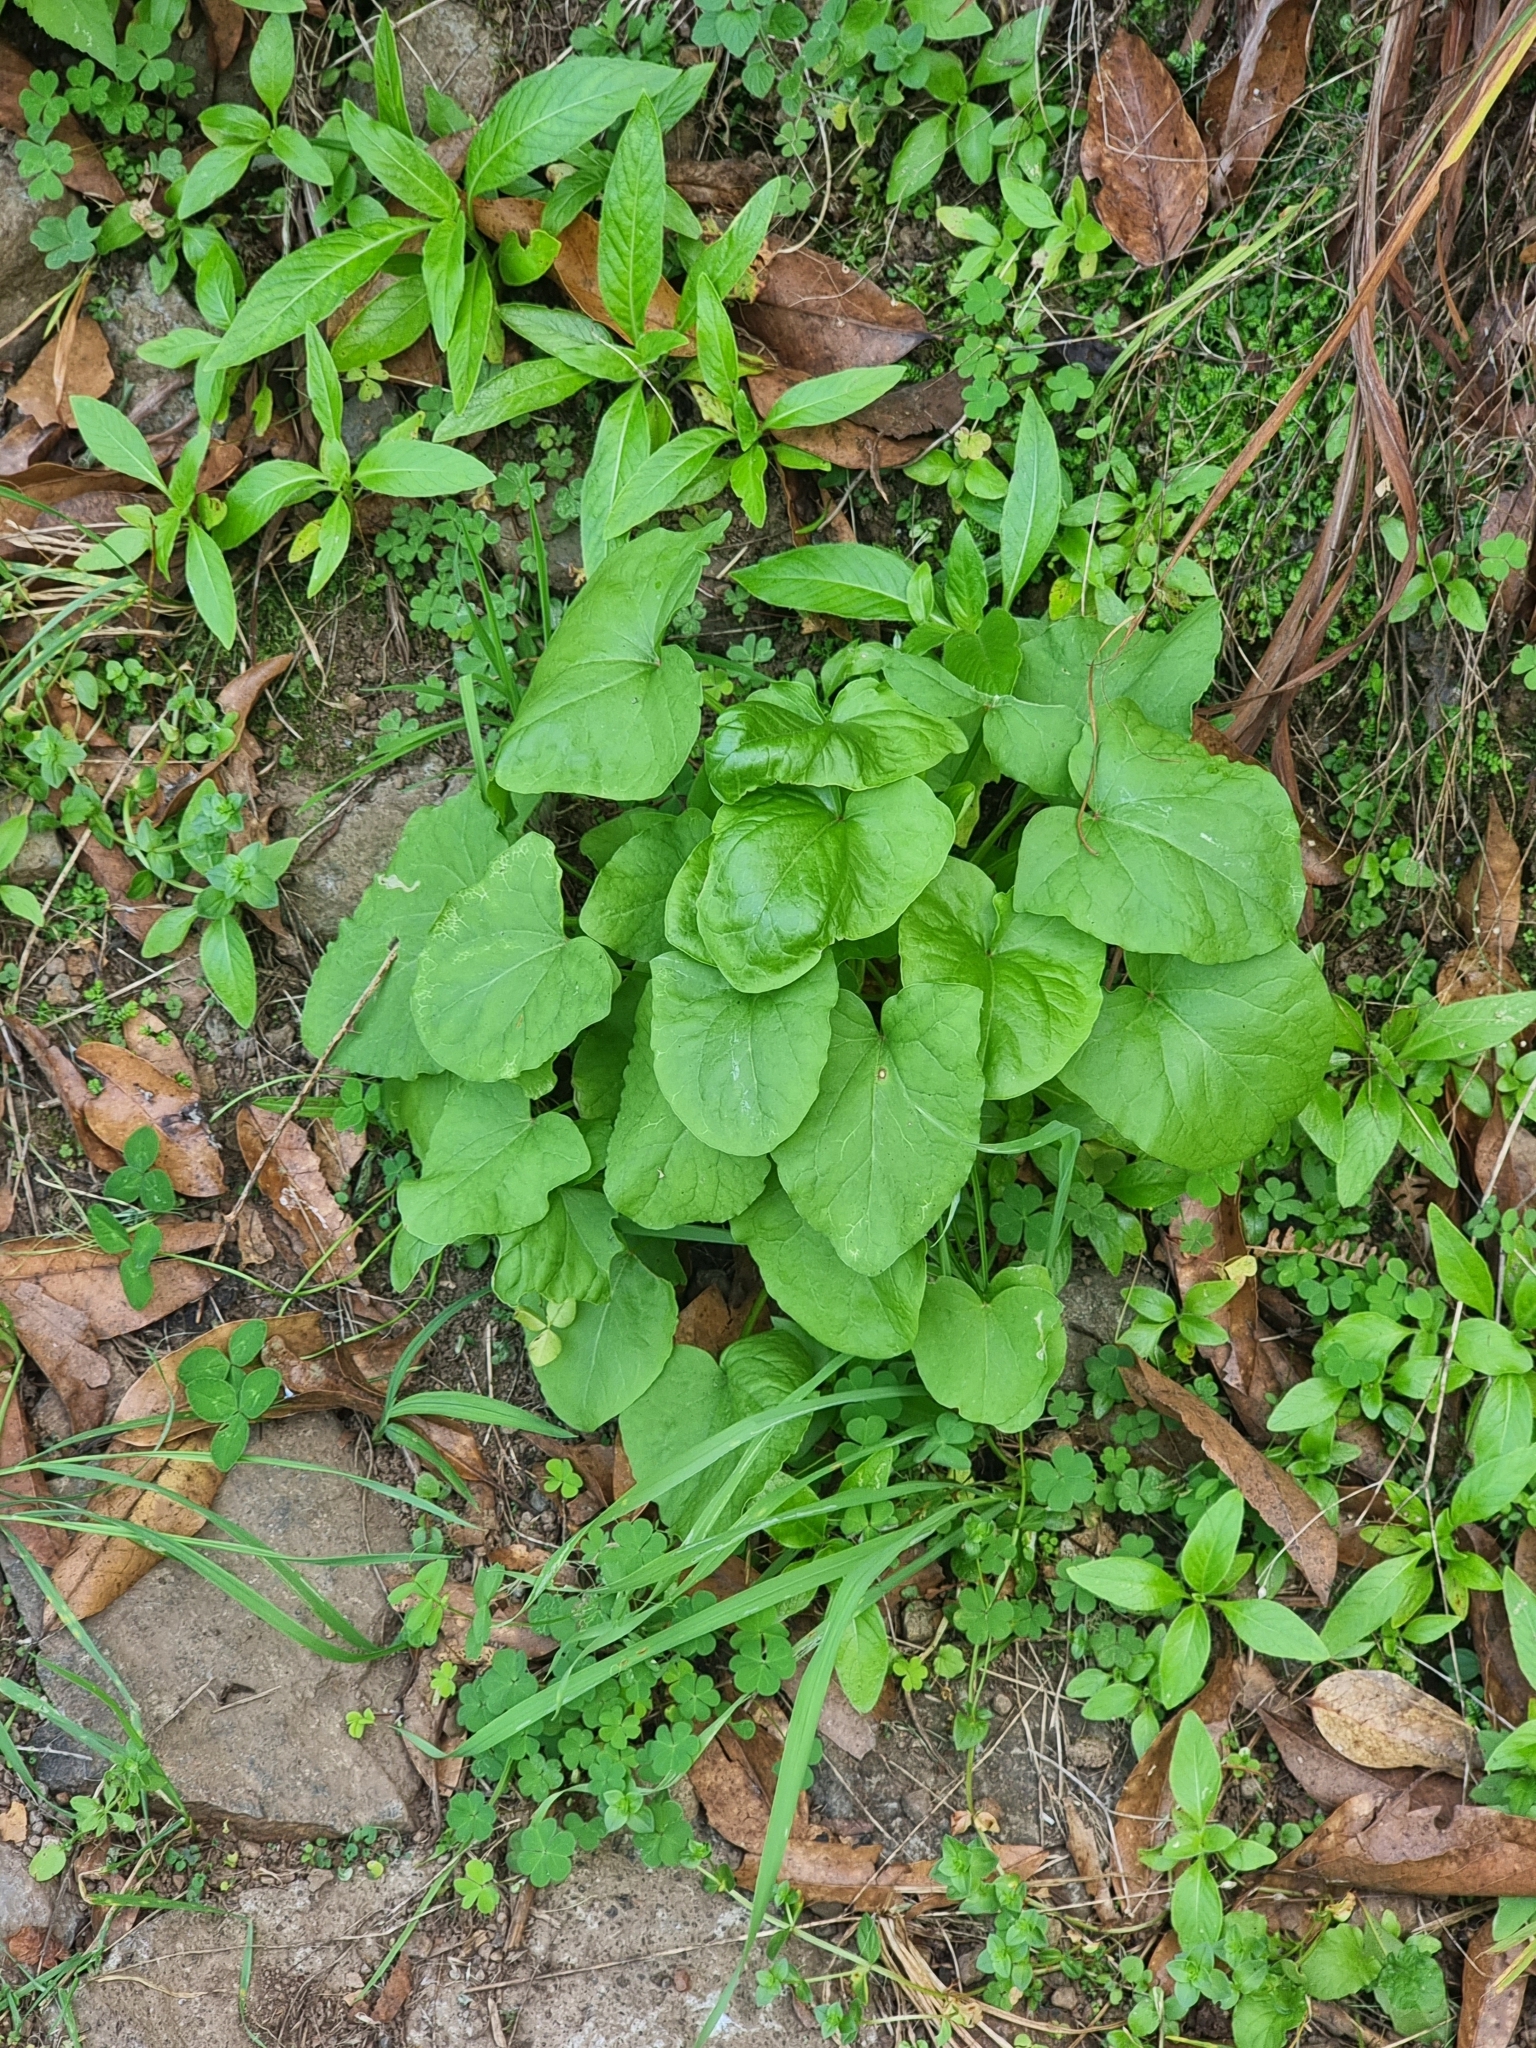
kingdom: Plantae
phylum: Tracheophyta
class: Magnoliopsida
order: Caryophyllales
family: Polygonaceae
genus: Rumex
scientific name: Rumex maderensis
